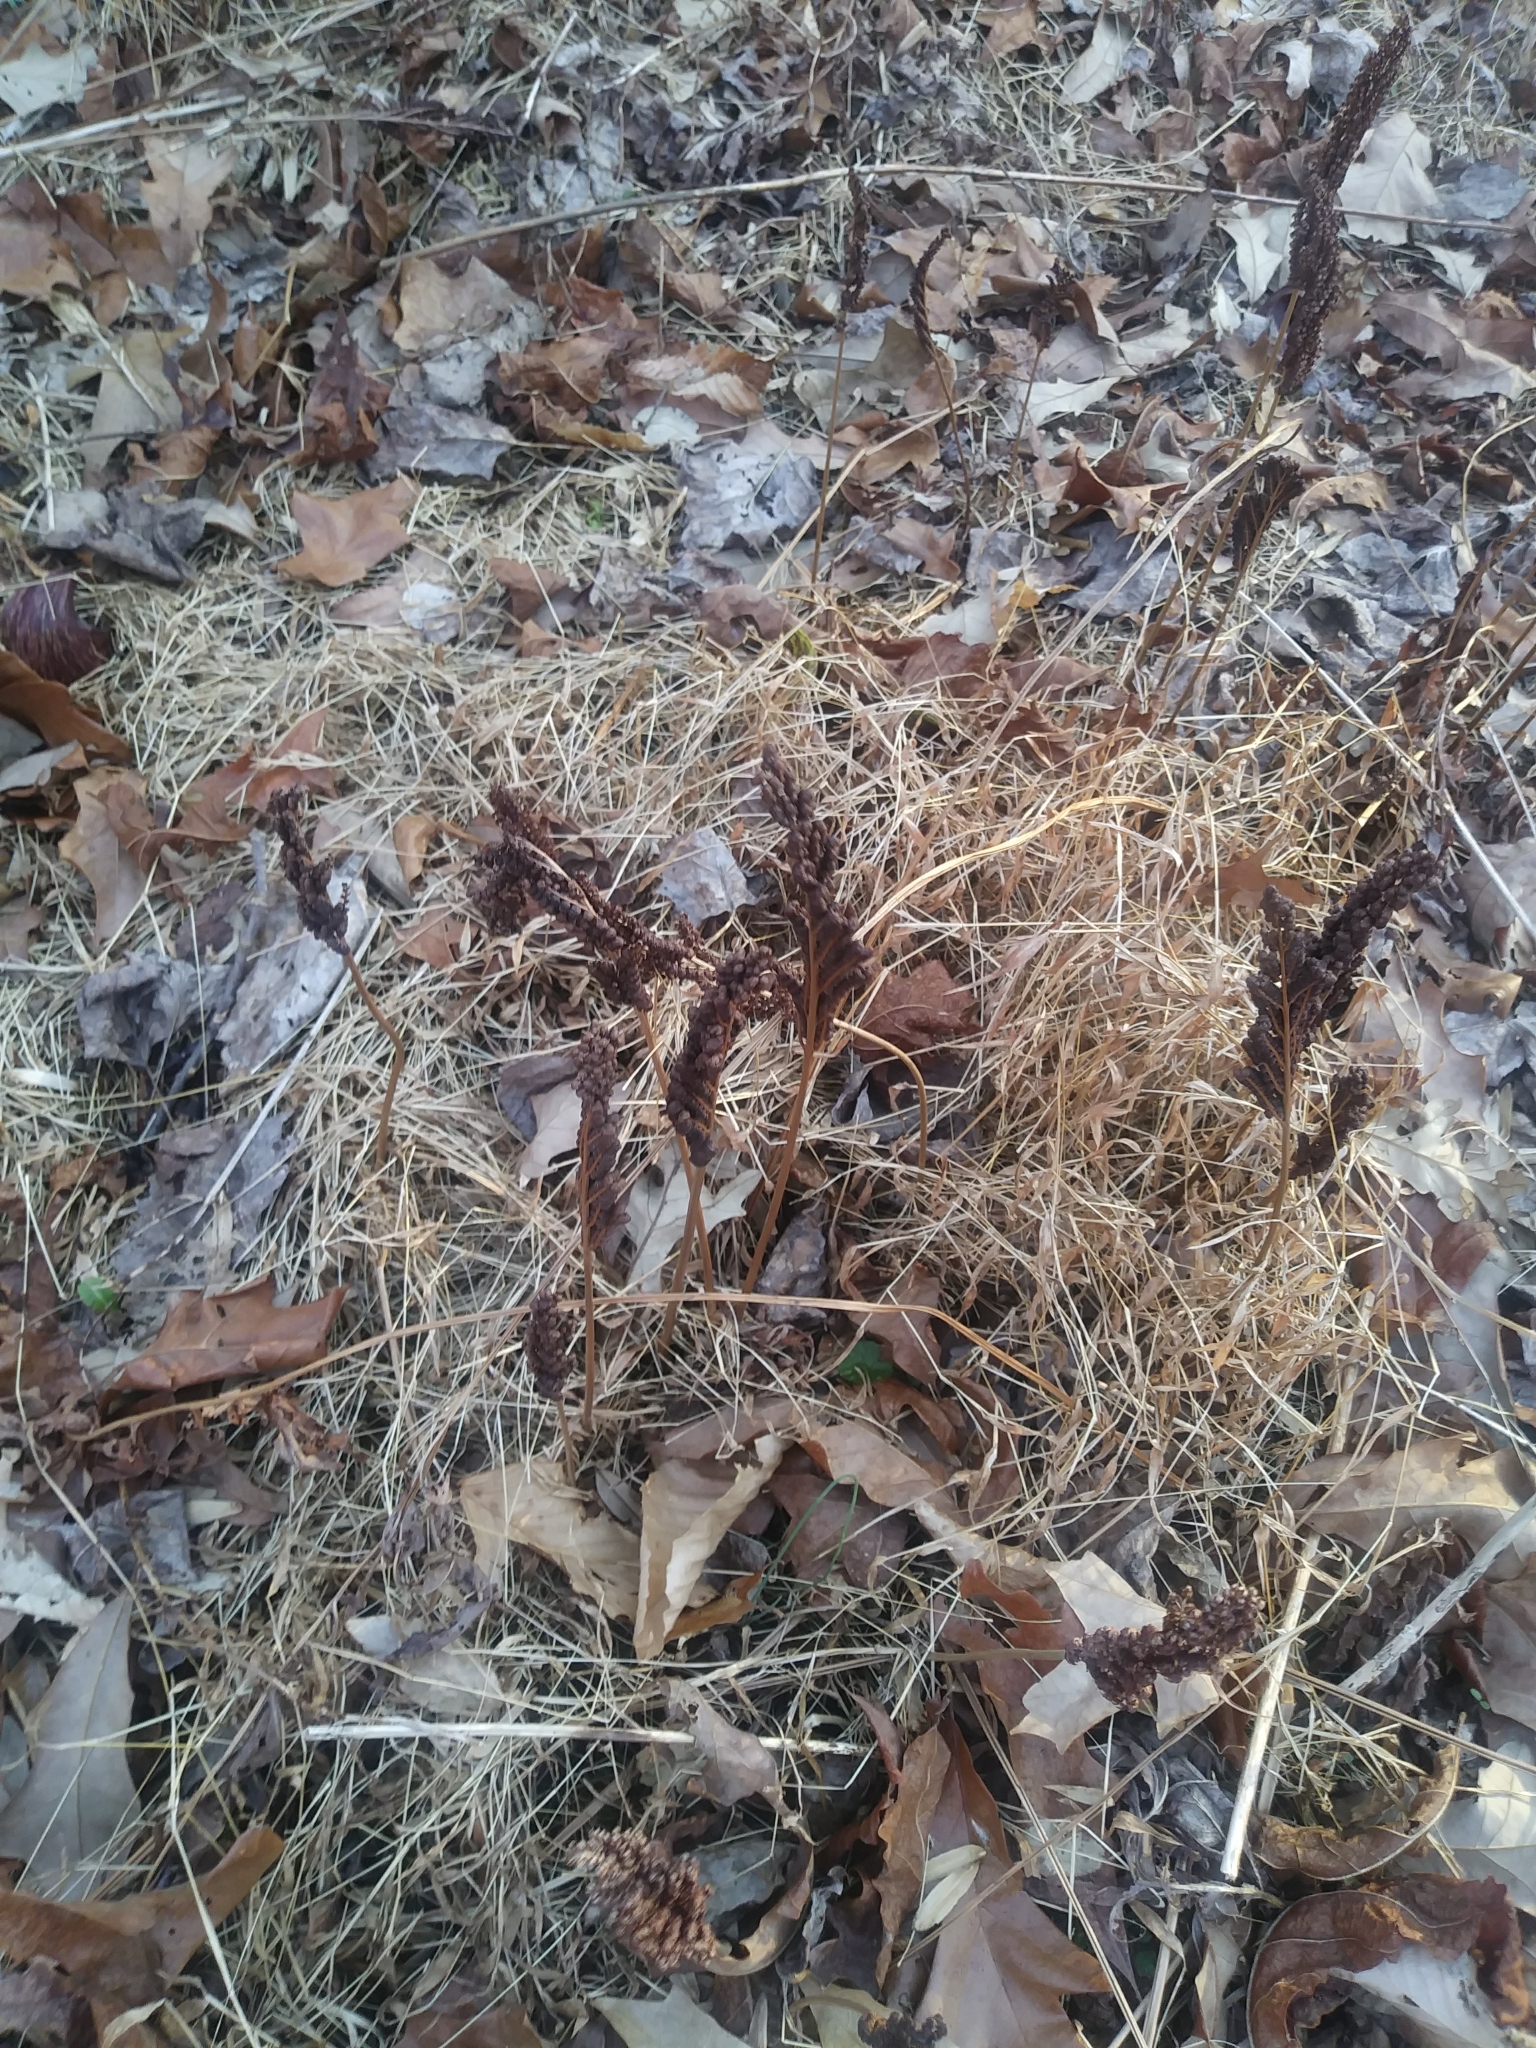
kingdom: Plantae
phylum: Tracheophyta
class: Polypodiopsida
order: Polypodiales
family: Onocleaceae
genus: Onoclea
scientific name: Onoclea sensibilis
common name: Sensitive fern
